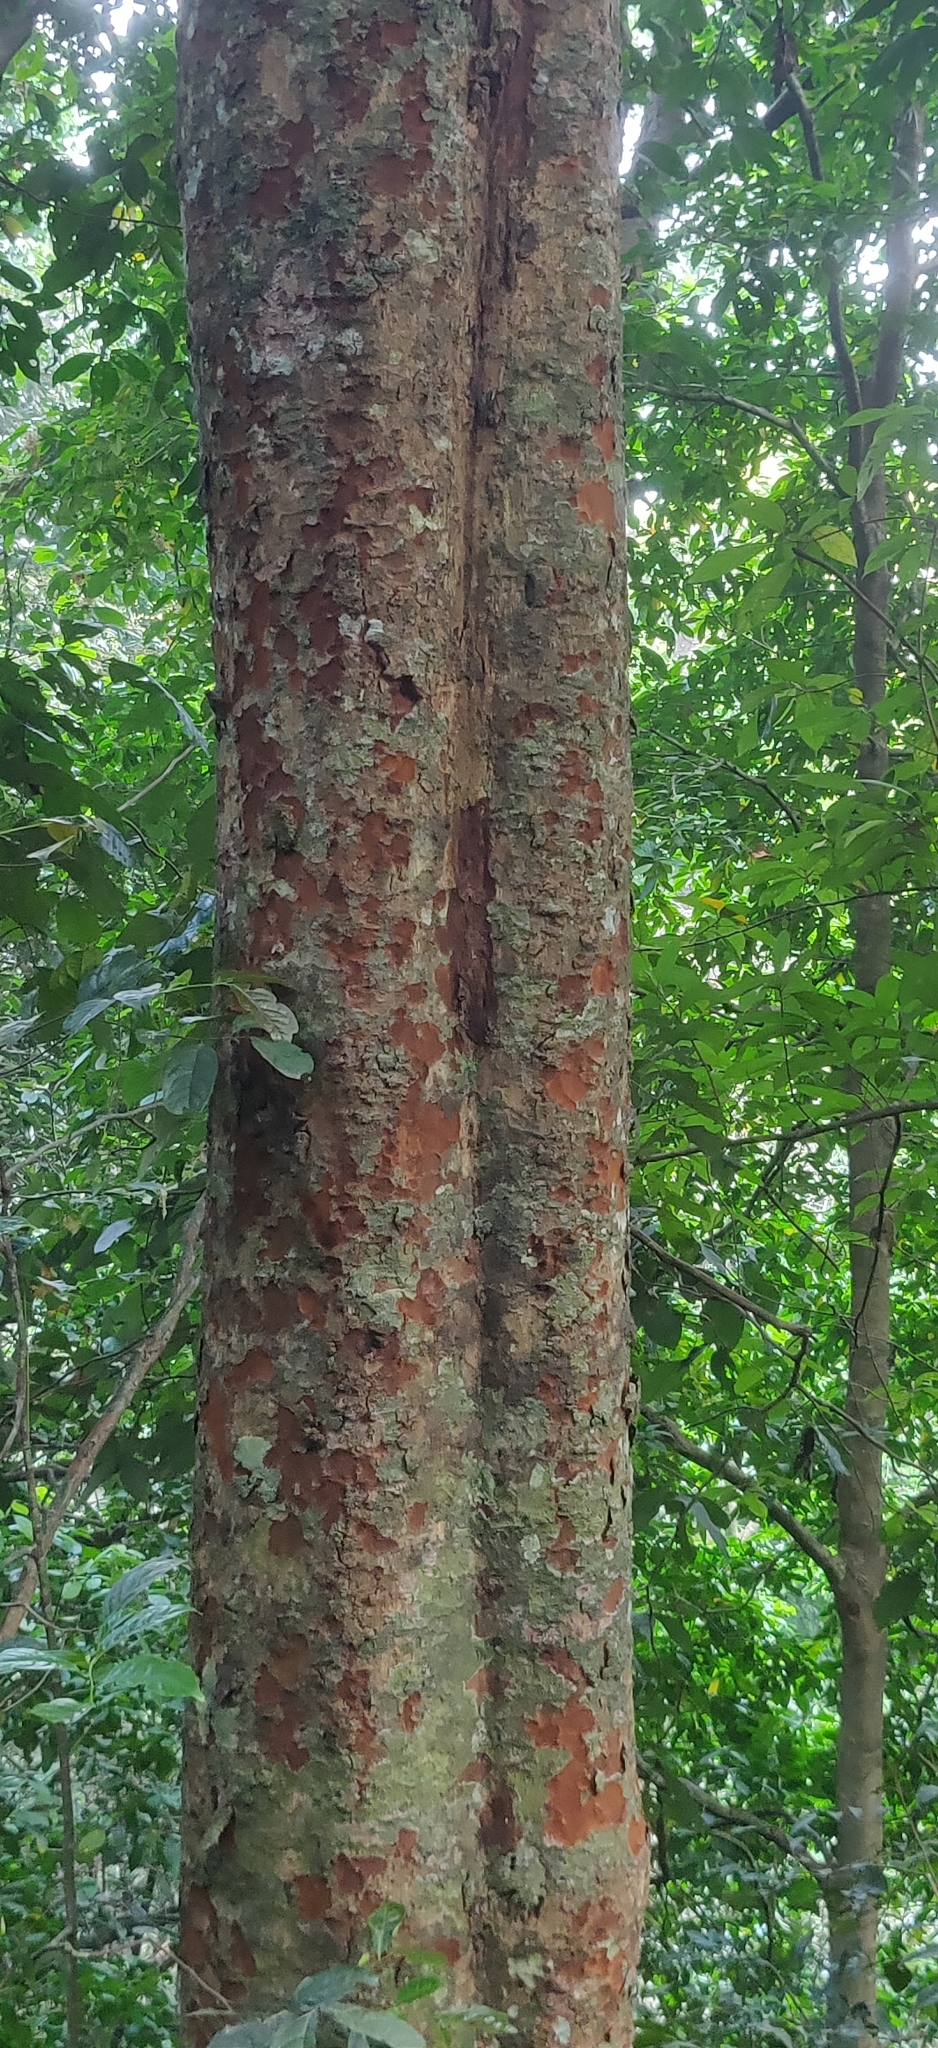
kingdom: Plantae
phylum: Tracheophyta
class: Magnoliopsida
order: Magnoliales
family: Myristicaceae
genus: Knema
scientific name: Knema attenuata
